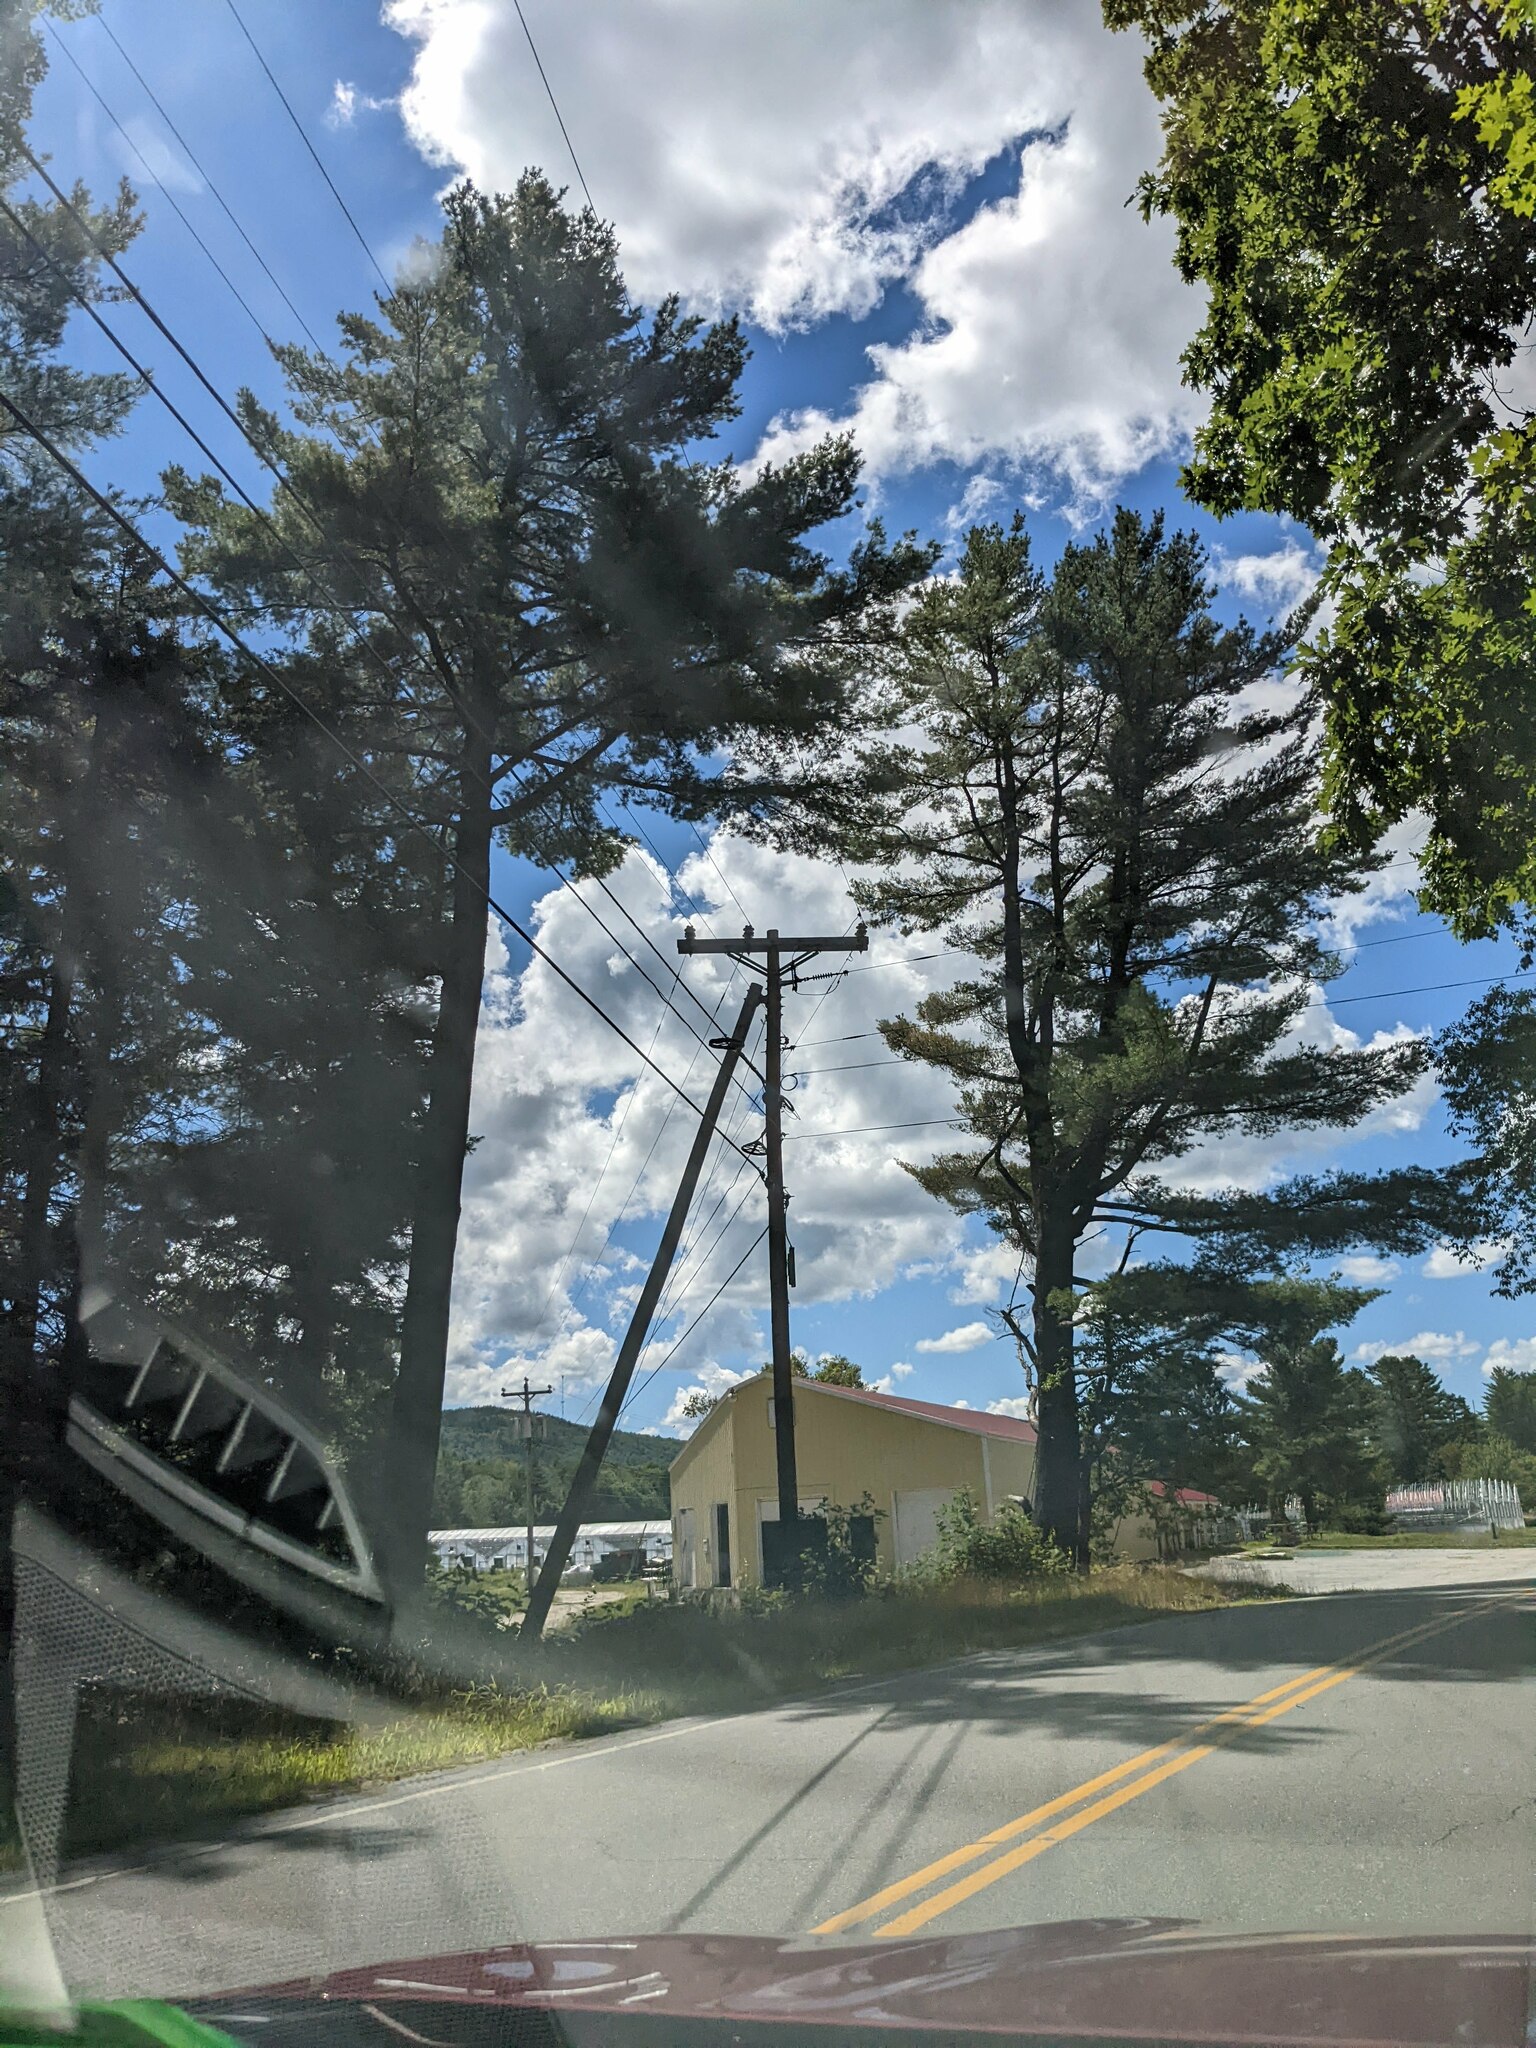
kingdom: Plantae
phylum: Tracheophyta
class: Pinopsida
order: Pinales
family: Pinaceae
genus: Pinus
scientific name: Pinus strobus
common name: Weymouth pine
